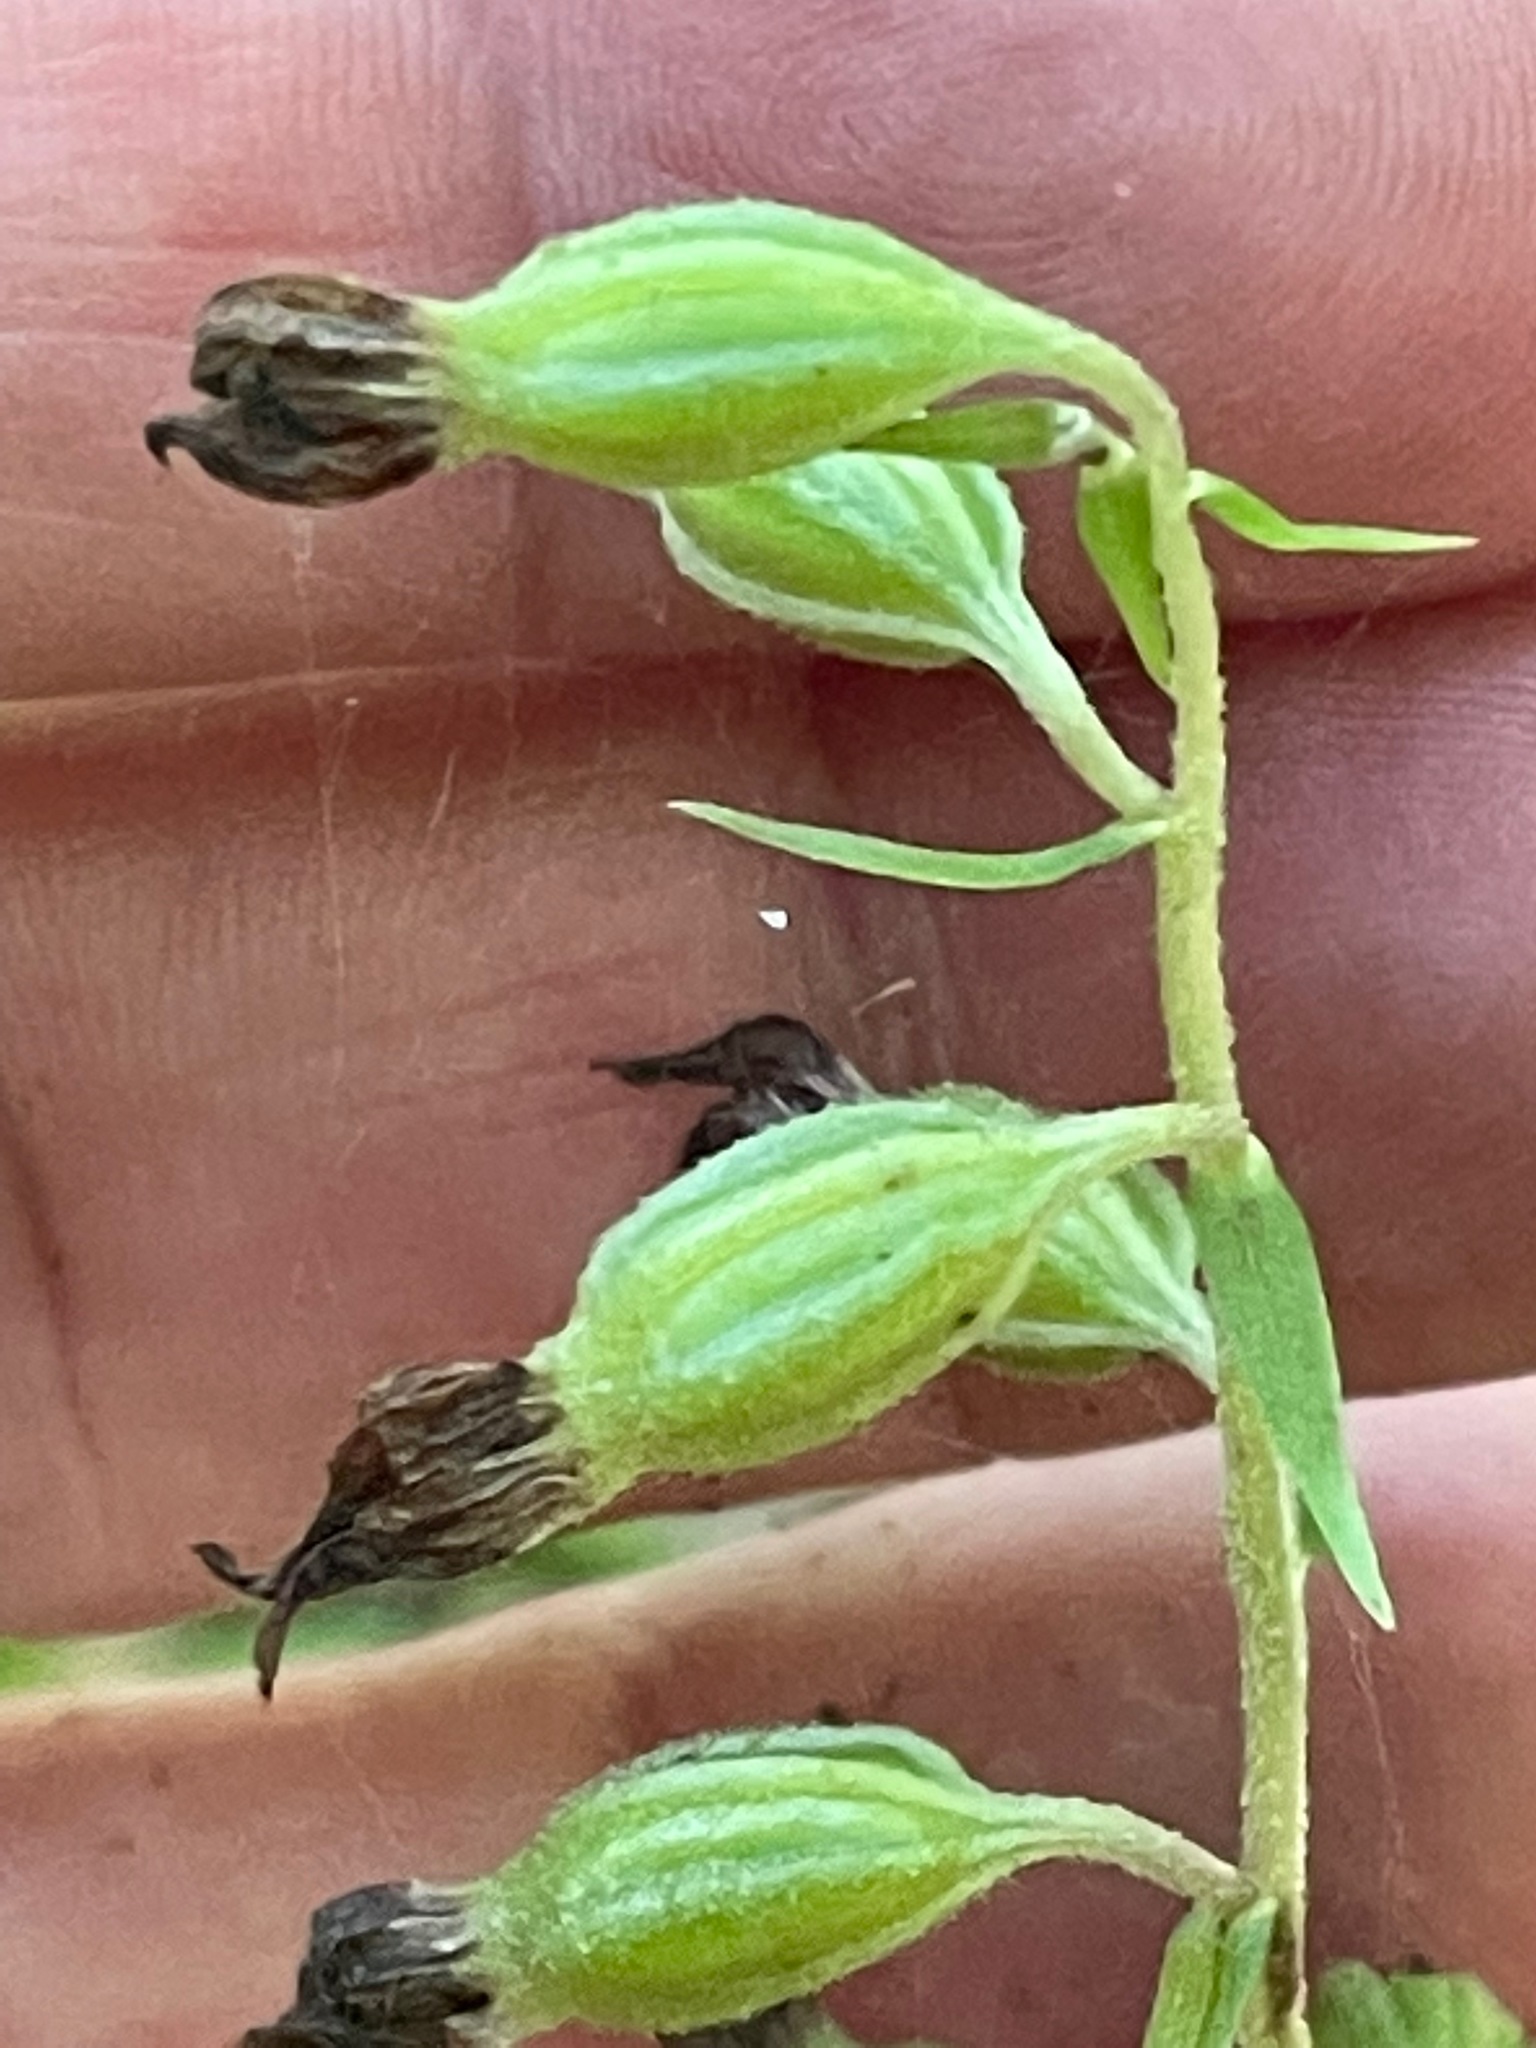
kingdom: Plantae
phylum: Tracheophyta
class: Liliopsida
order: Asparagales
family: Orchidaceae
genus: Epipactis
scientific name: Epipactis helleborine
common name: Broad-leaved helleborine
